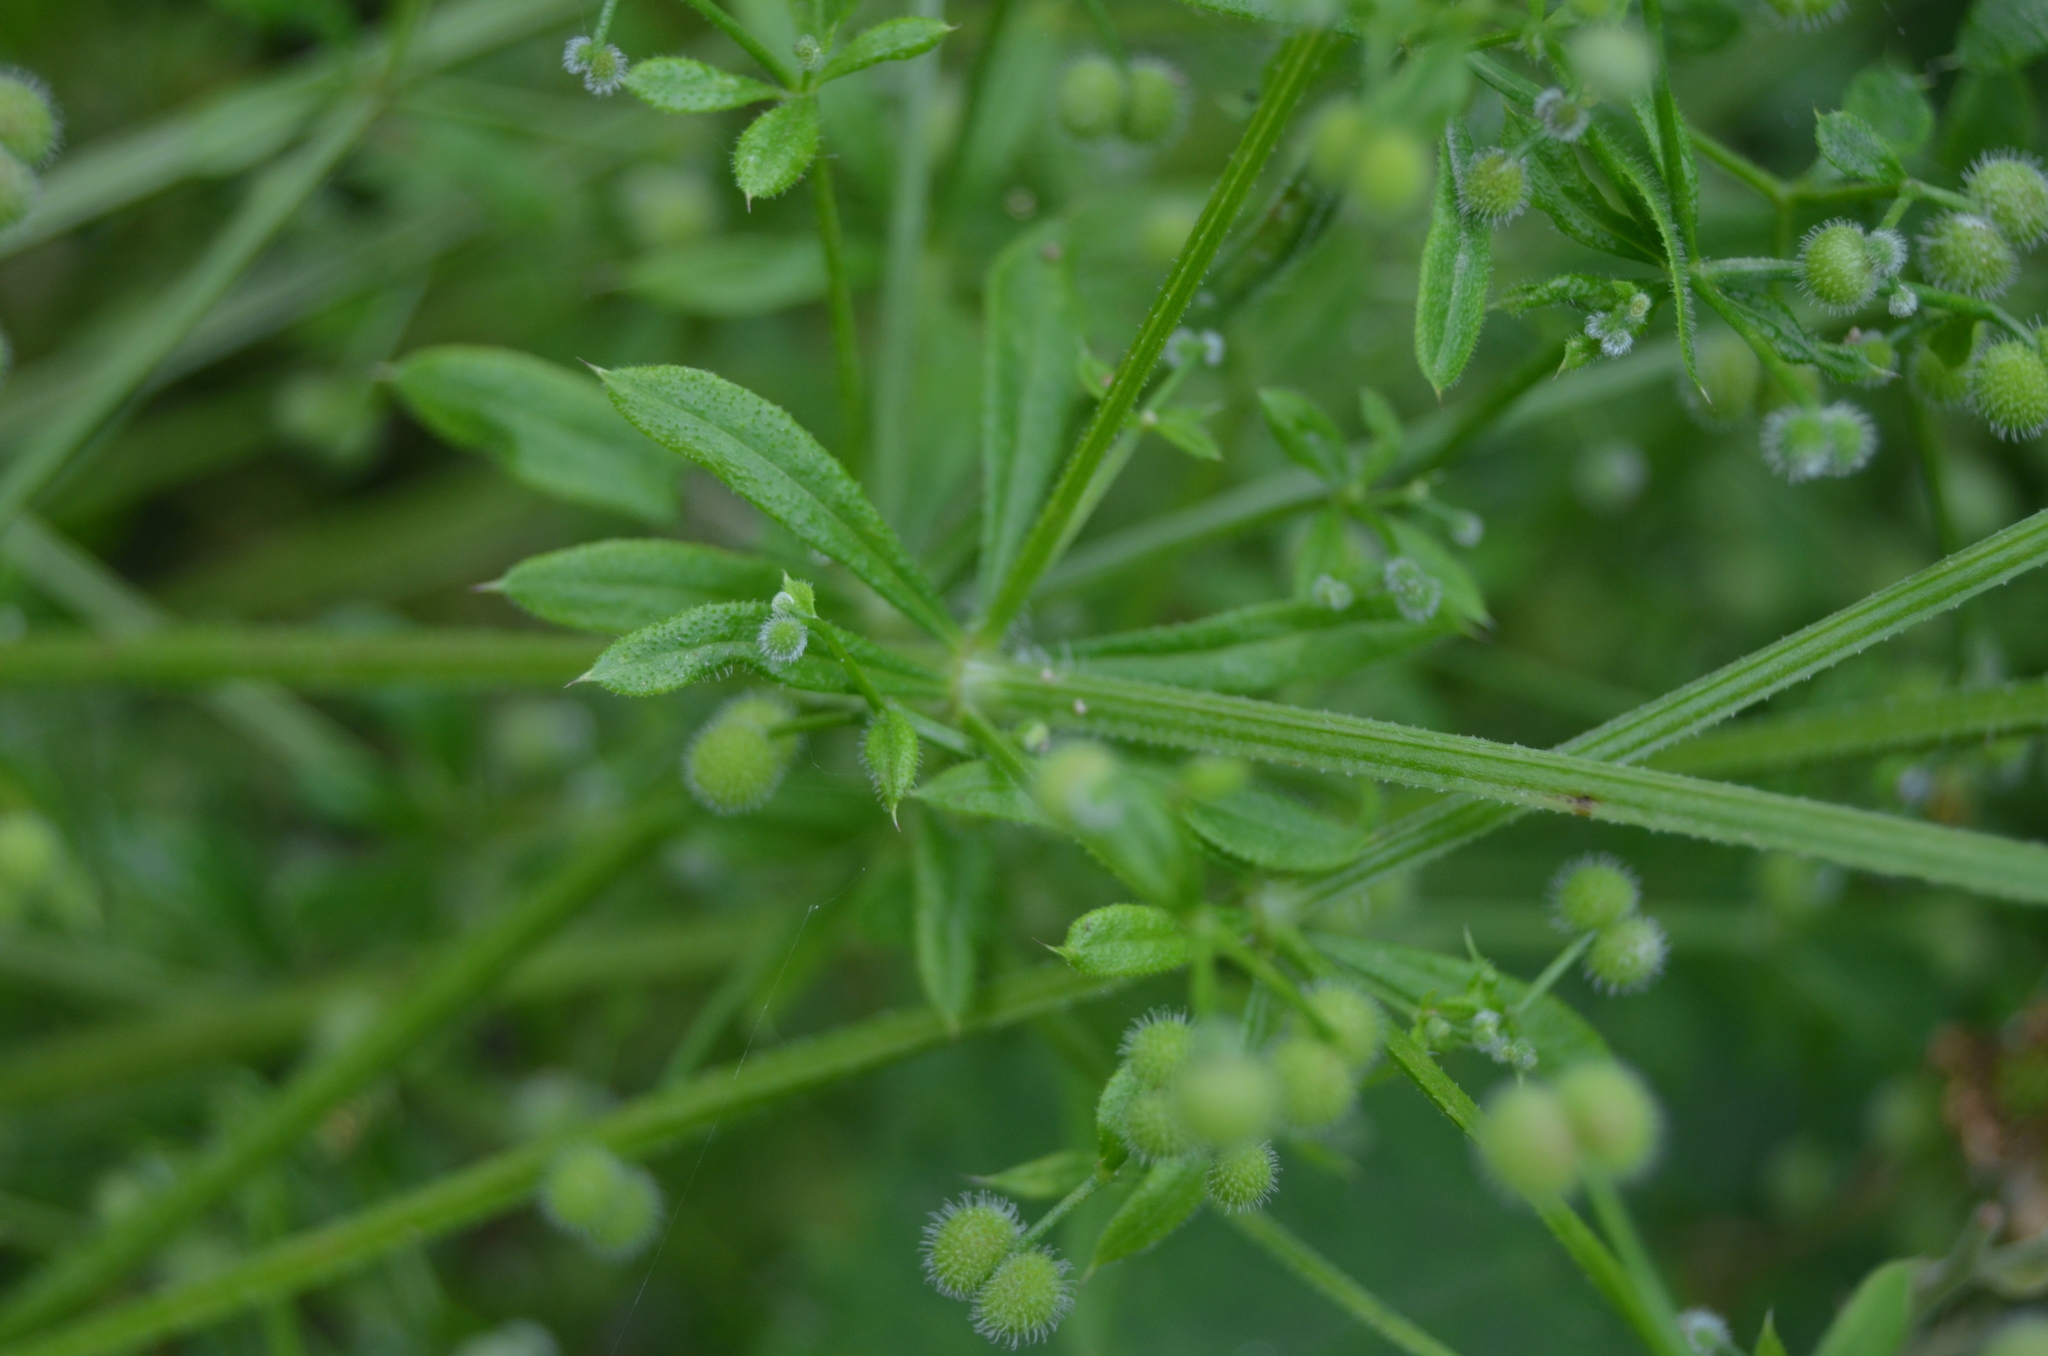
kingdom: Plantae
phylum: Tracheophyta
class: Magnoliopsida
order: Gentianales
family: Rubiaceae
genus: Galium
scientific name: Galium aparine
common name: Cleavers
